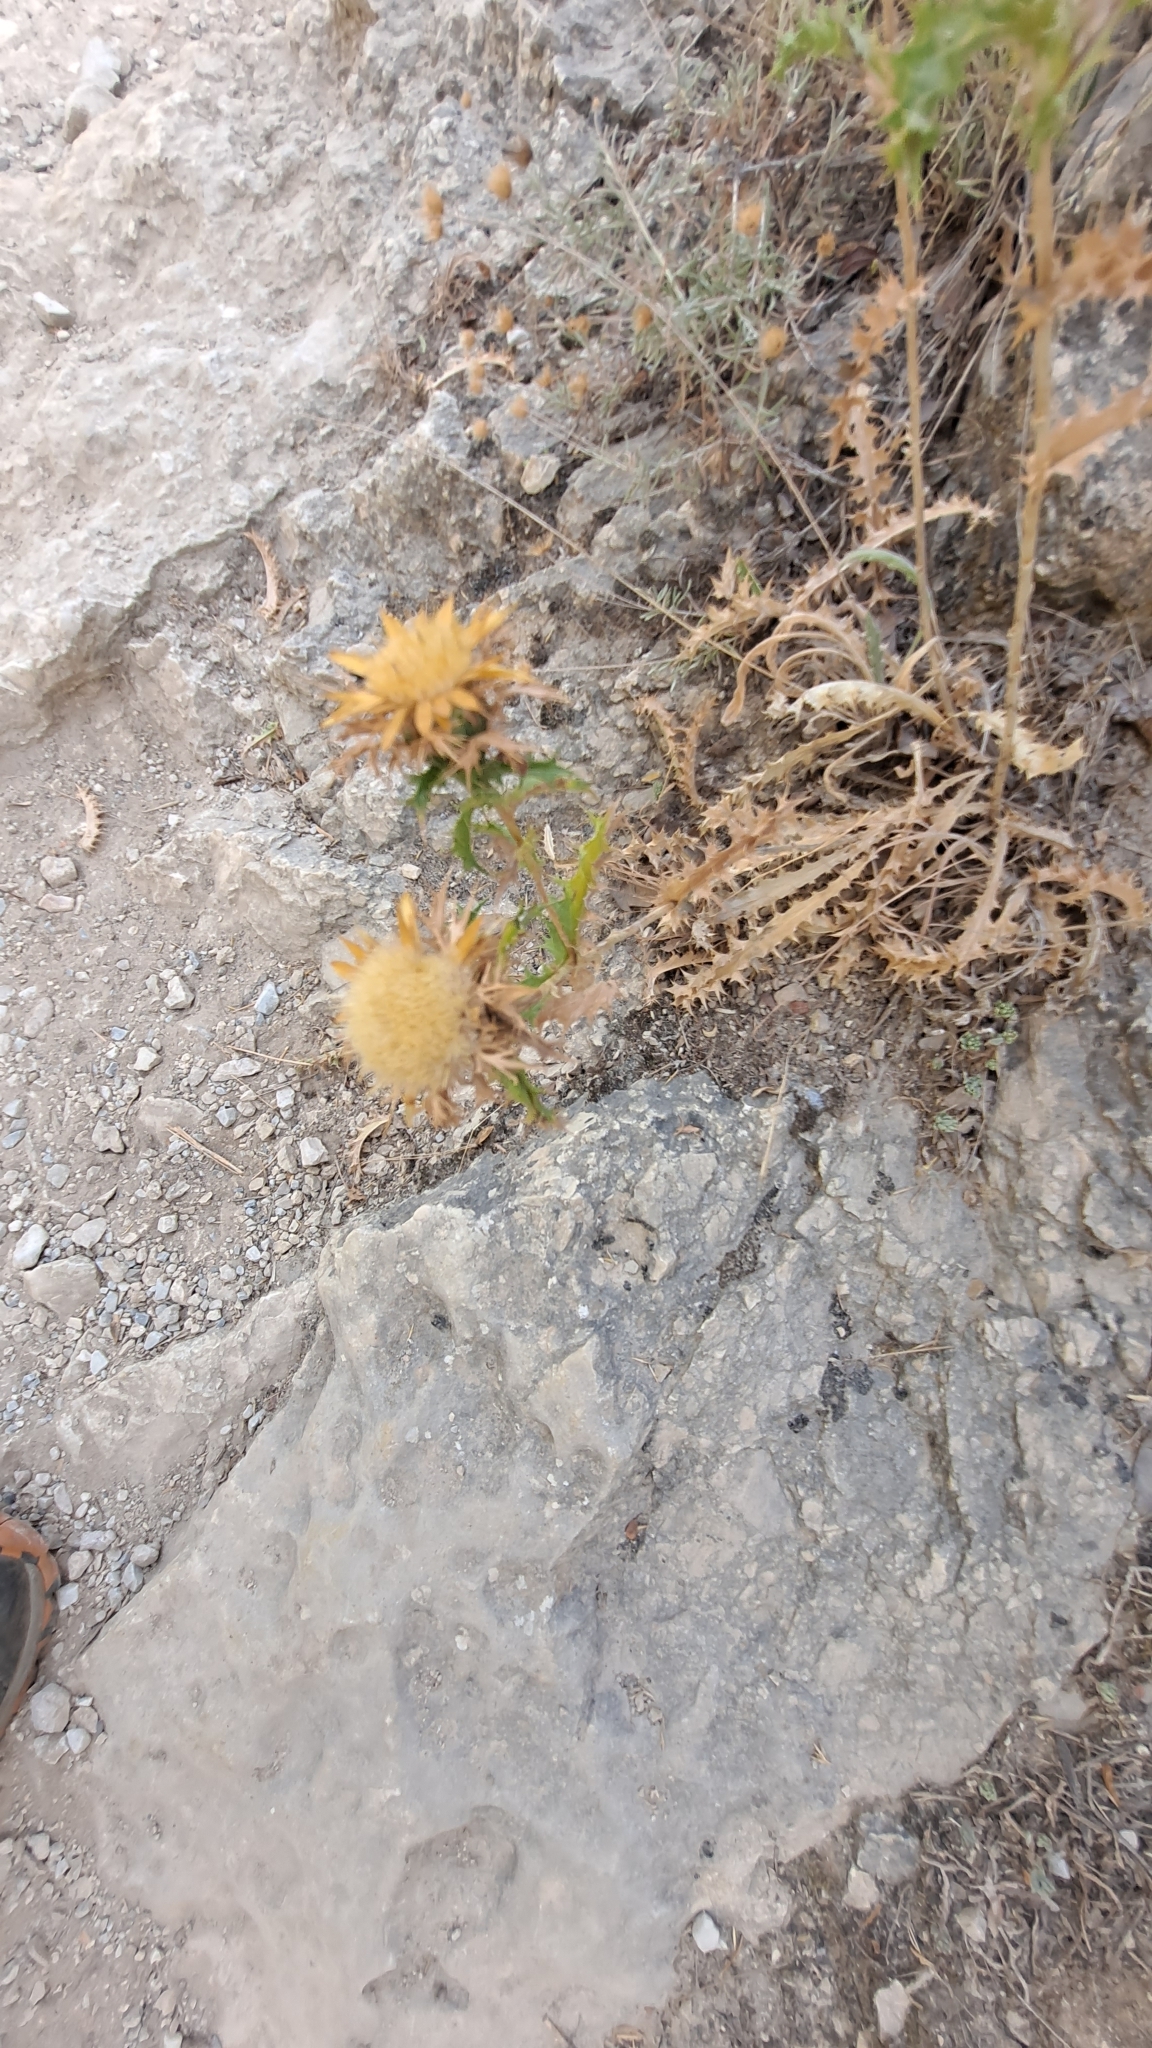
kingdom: Plantae
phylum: Tracheophyta
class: Magnoliopsida
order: Asterales
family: Asteraceae
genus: Carlina
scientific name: Carlina hispanica
